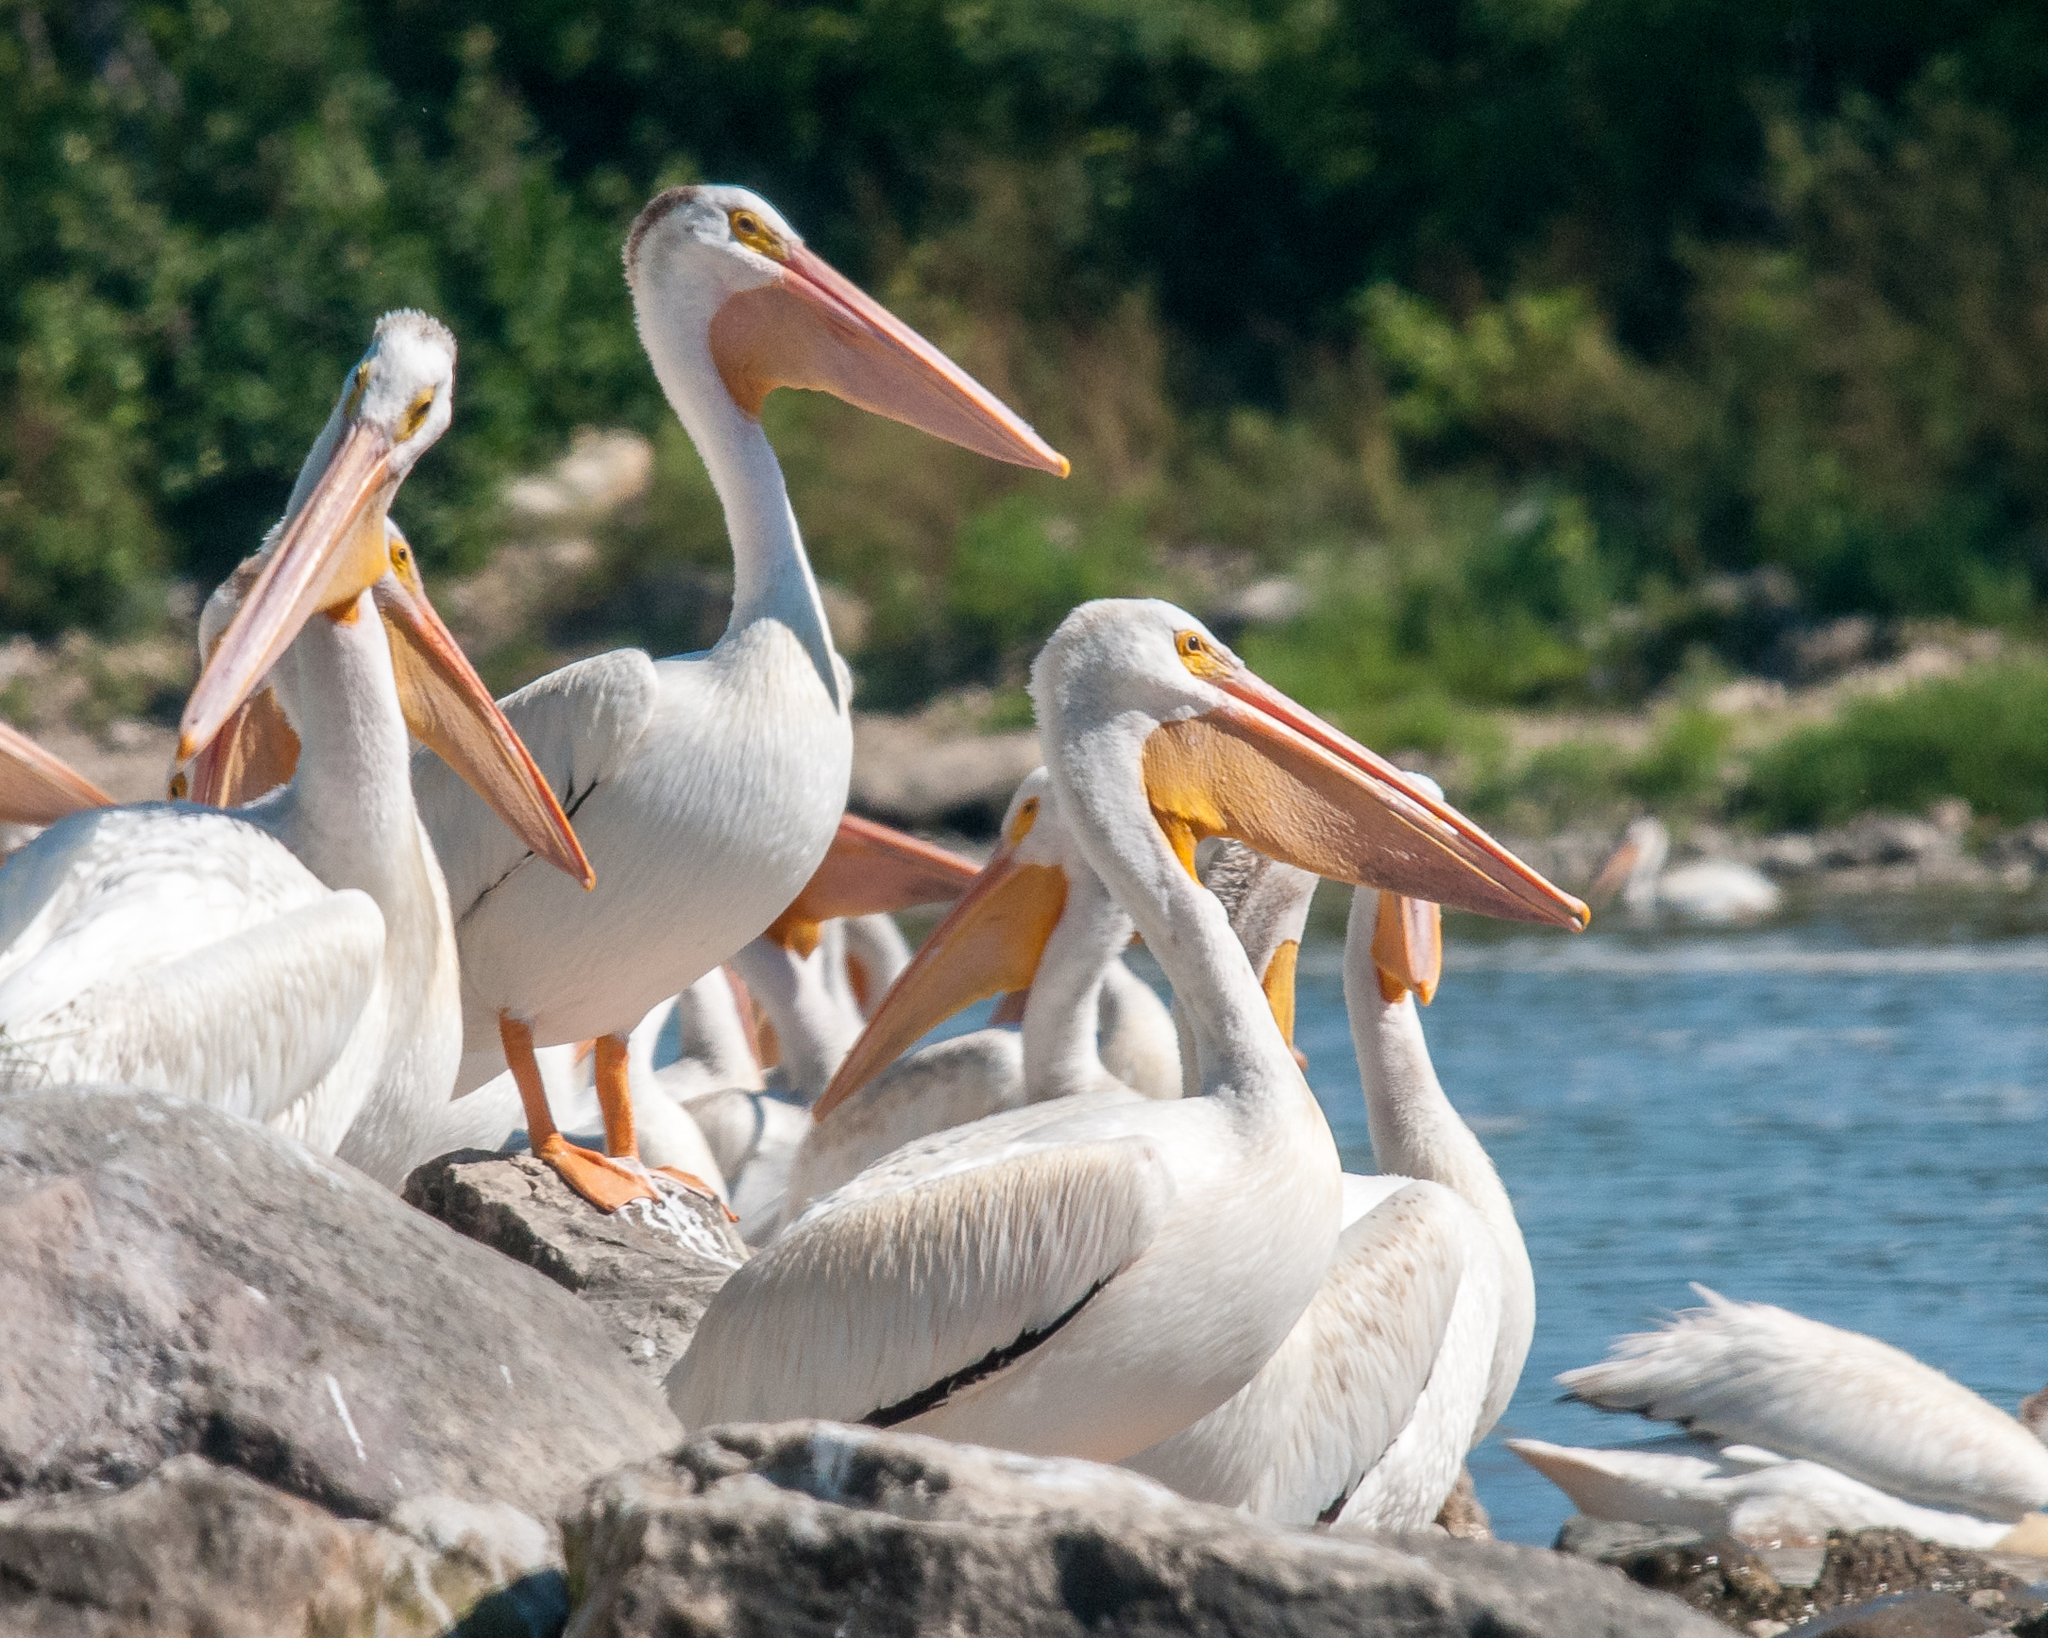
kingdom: Animalia
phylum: Chordata
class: Aves
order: Pelecaniformes
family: Pelecanidae
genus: Pelecanus
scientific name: Pelecanus erythrorhynchos
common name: American white pelican
